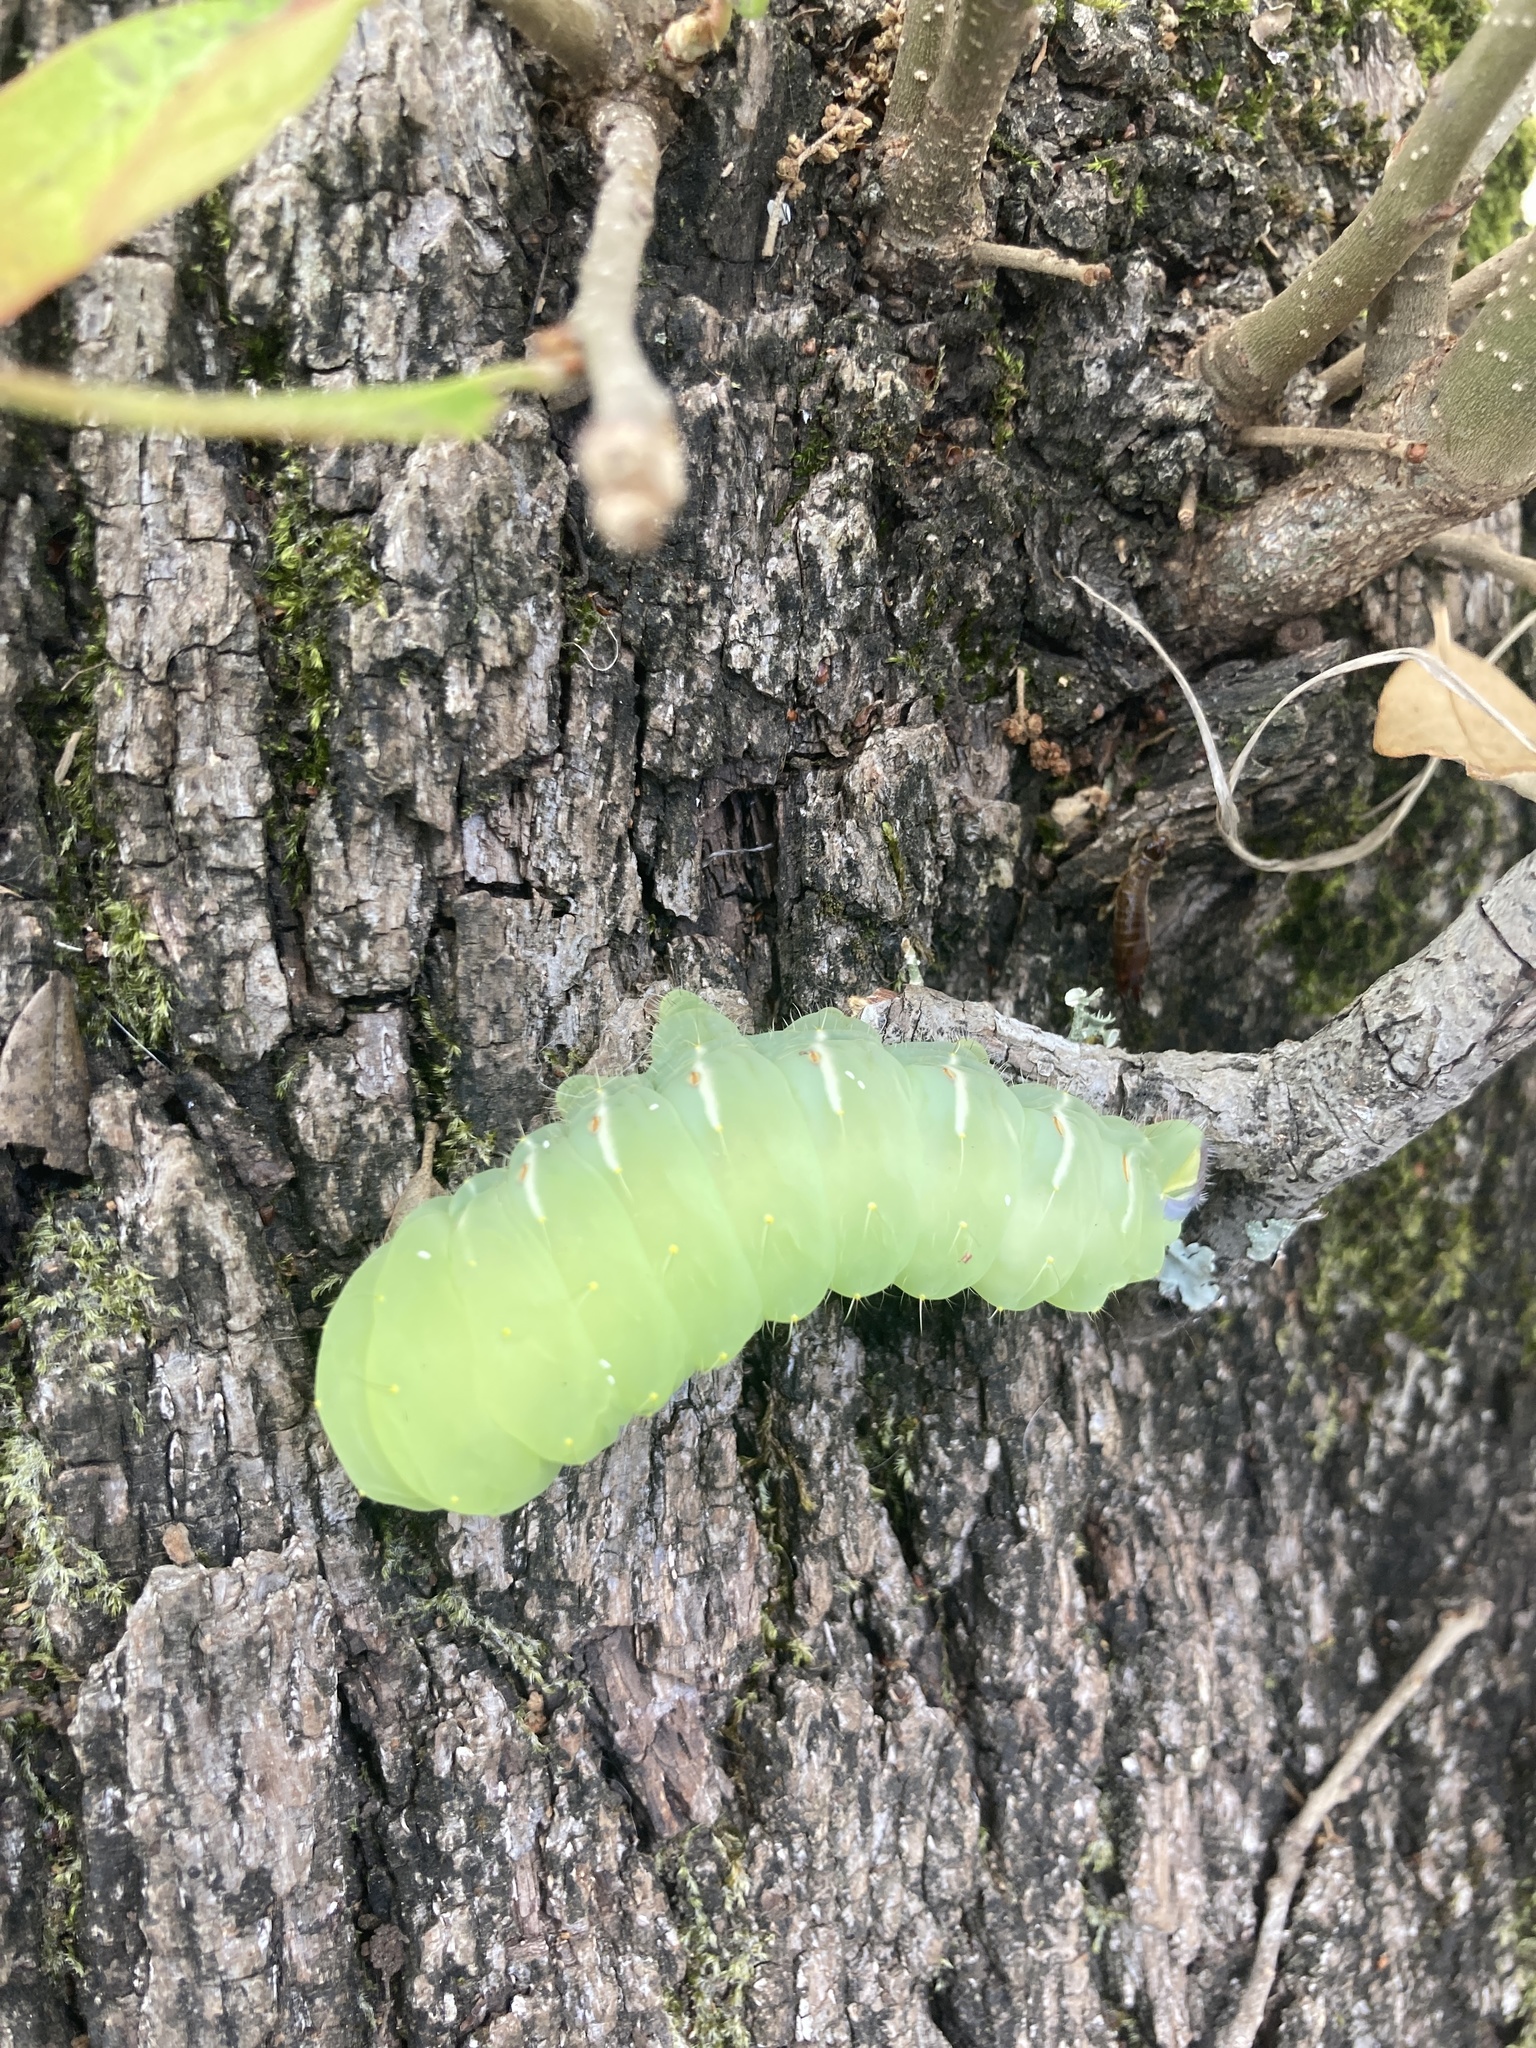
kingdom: Animalia
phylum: Arthropoda
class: Insecta
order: Lepidoptera
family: Saturniidae
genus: Antheraea
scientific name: Antheraea polyphemus
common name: Polyphemus moth
